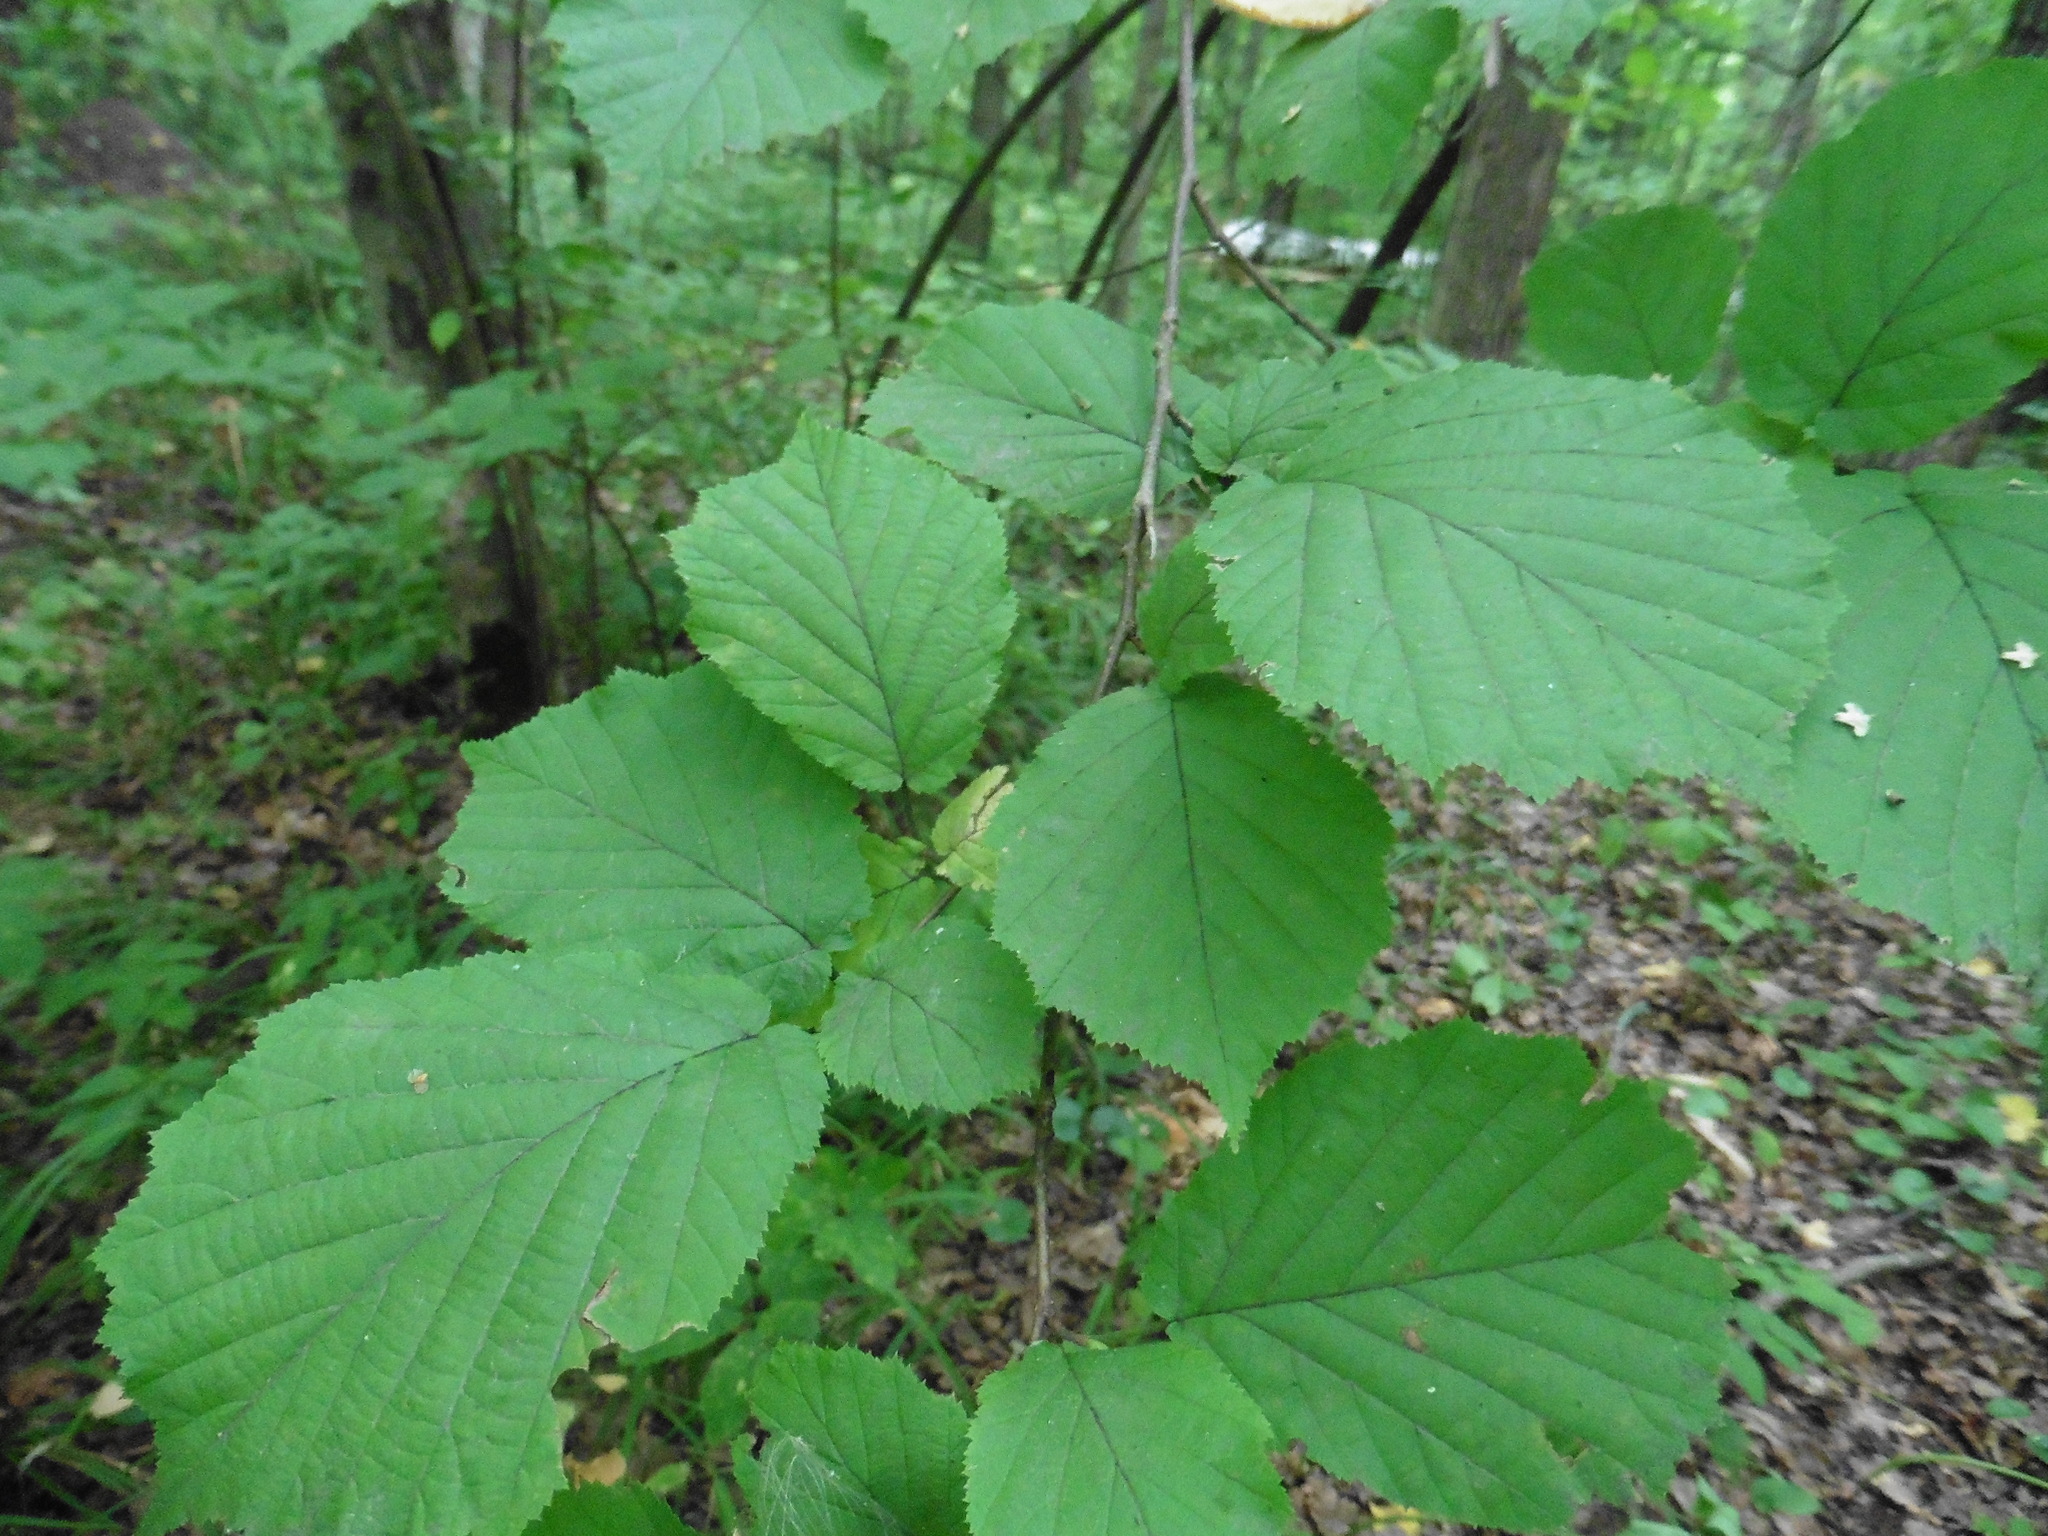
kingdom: Plantae
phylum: Tracheophyta
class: Magnoliopsida
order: Fagales
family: Betulaceae
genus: Corylus
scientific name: Corylus avellana
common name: European hazel
